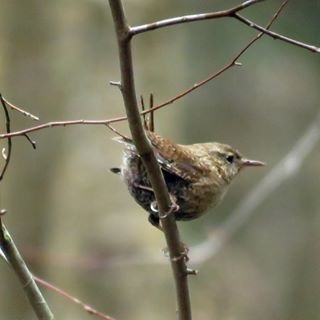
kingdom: Animalia
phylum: Chordata
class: Aves
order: Passeriformes
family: Troglodytidae
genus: Troglodytes
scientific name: Troglodytes hiemalis
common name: Winter wren
